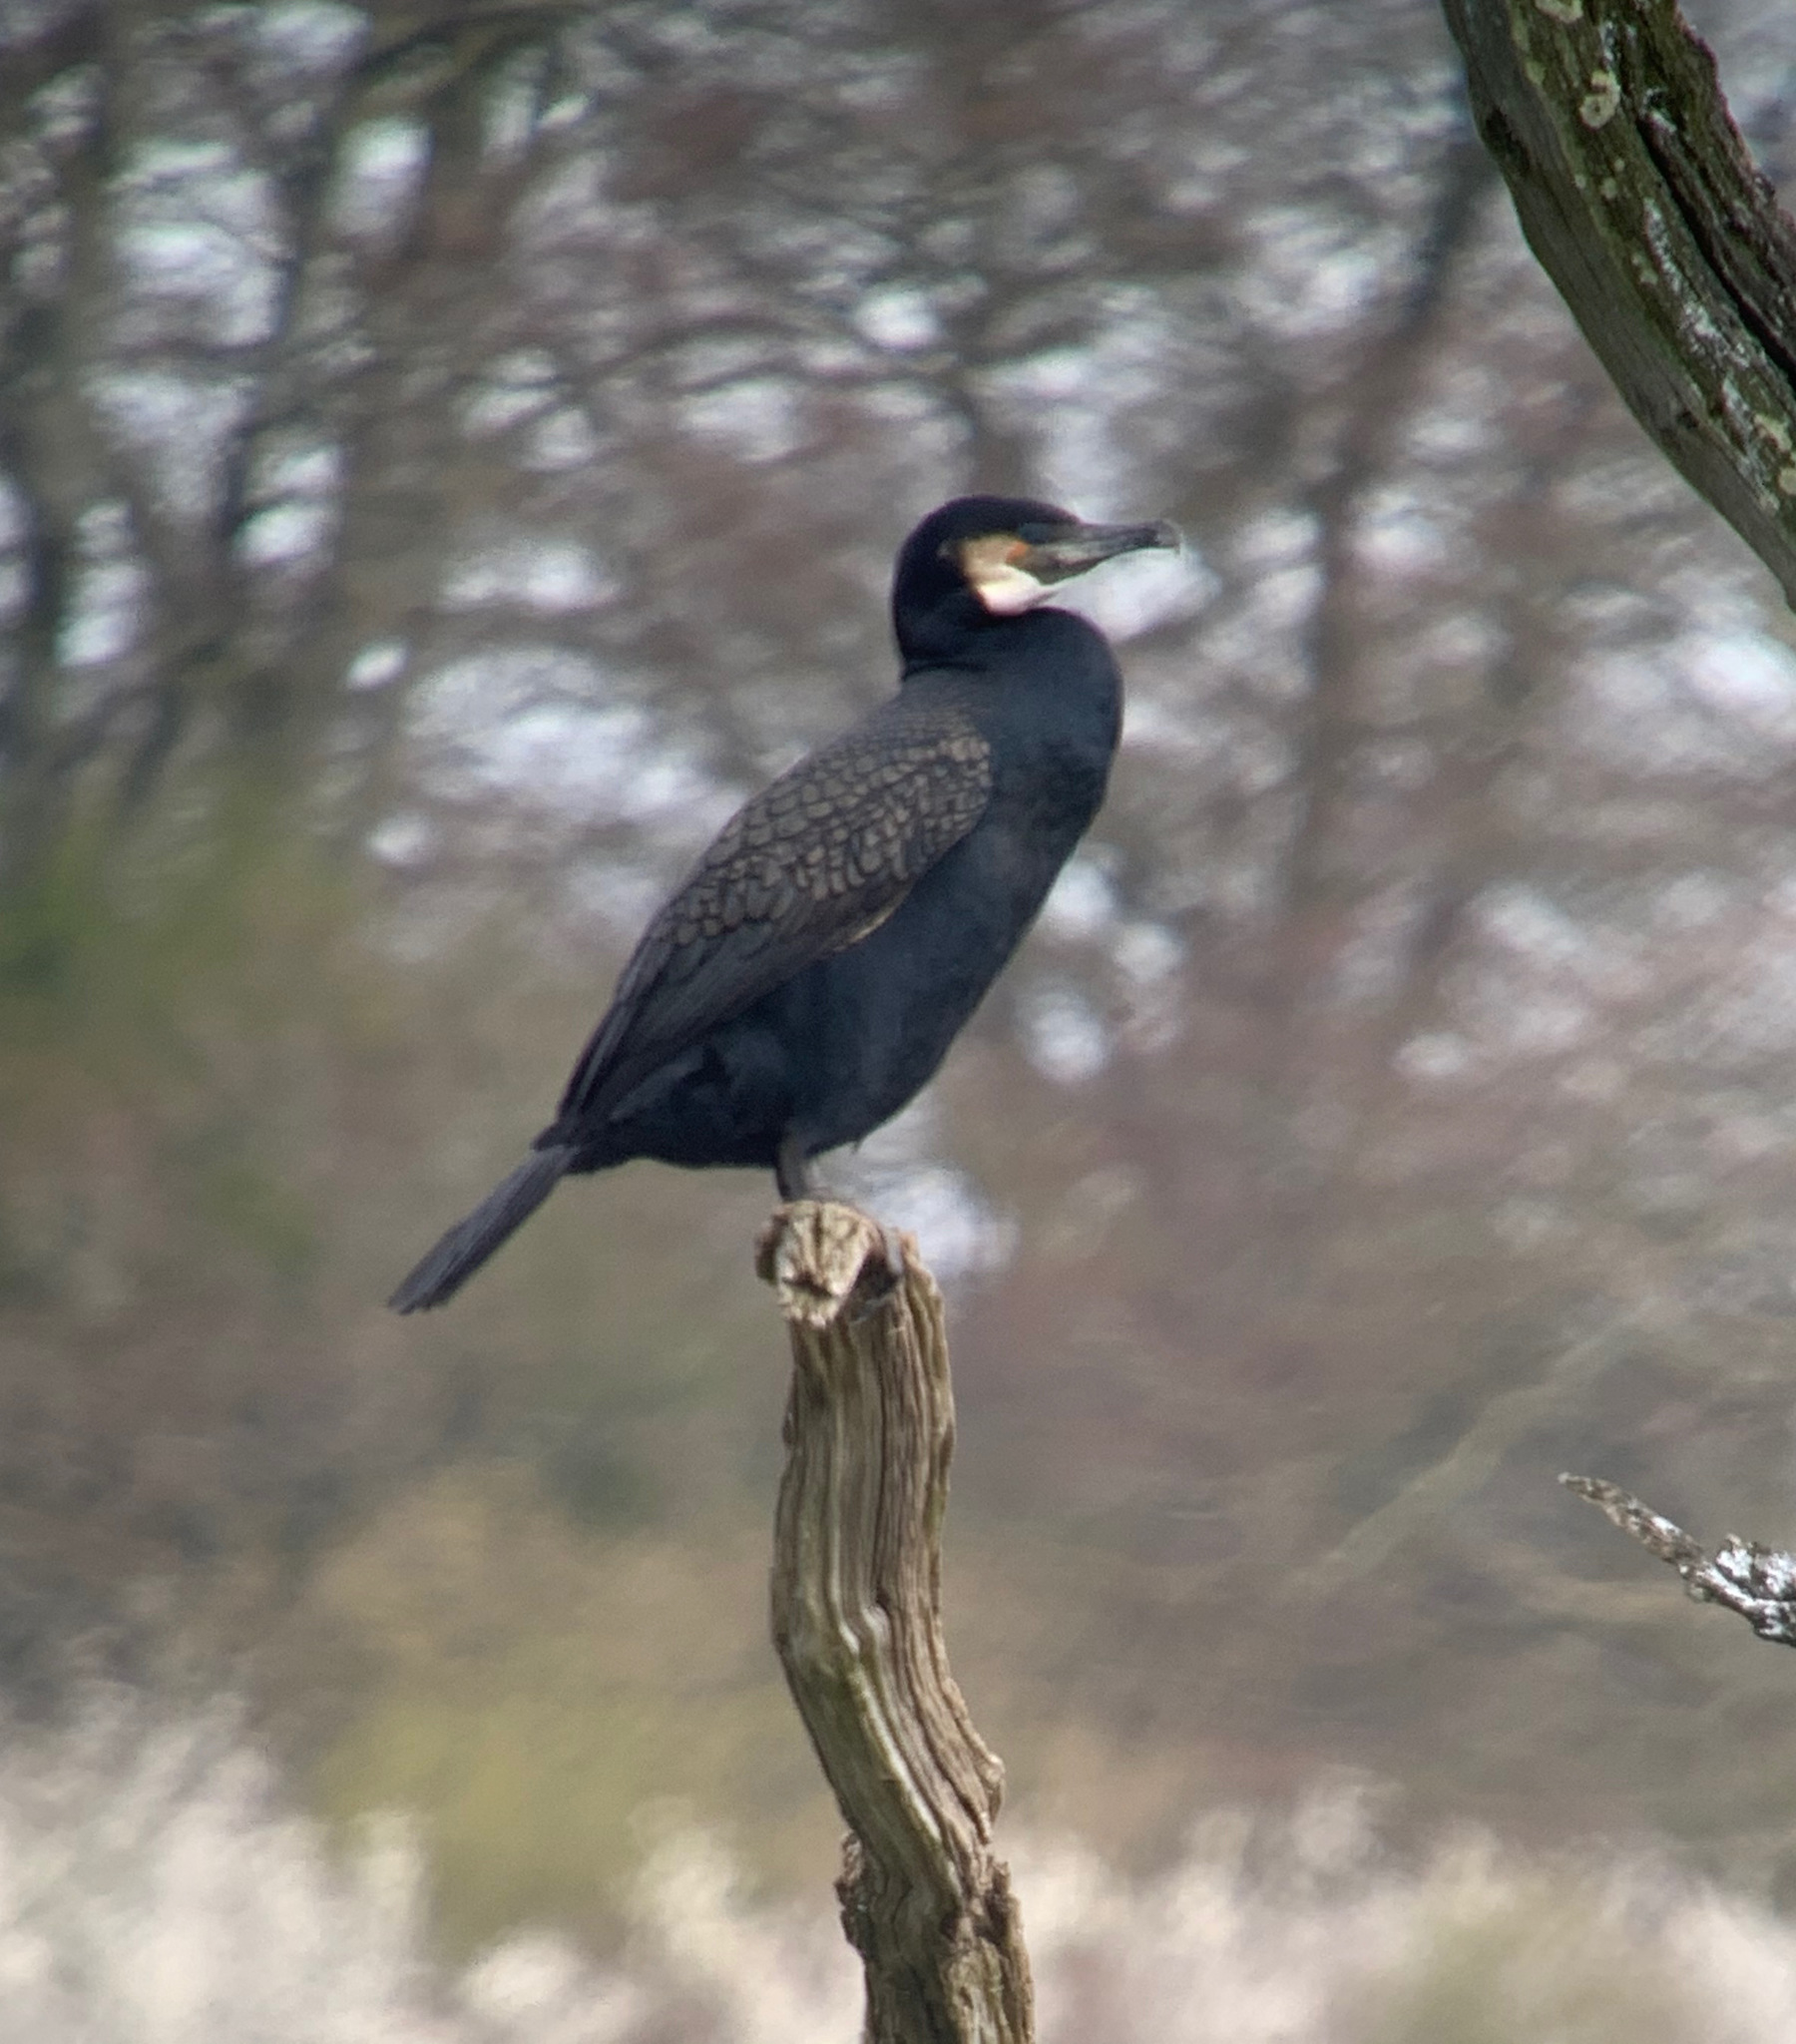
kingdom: Animalia
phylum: Chordata
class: Aves
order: Suliformes
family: Phalacrocoracidae
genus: Phalacrocorax
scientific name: Phalacrocorax carbo
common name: Great cormorant
